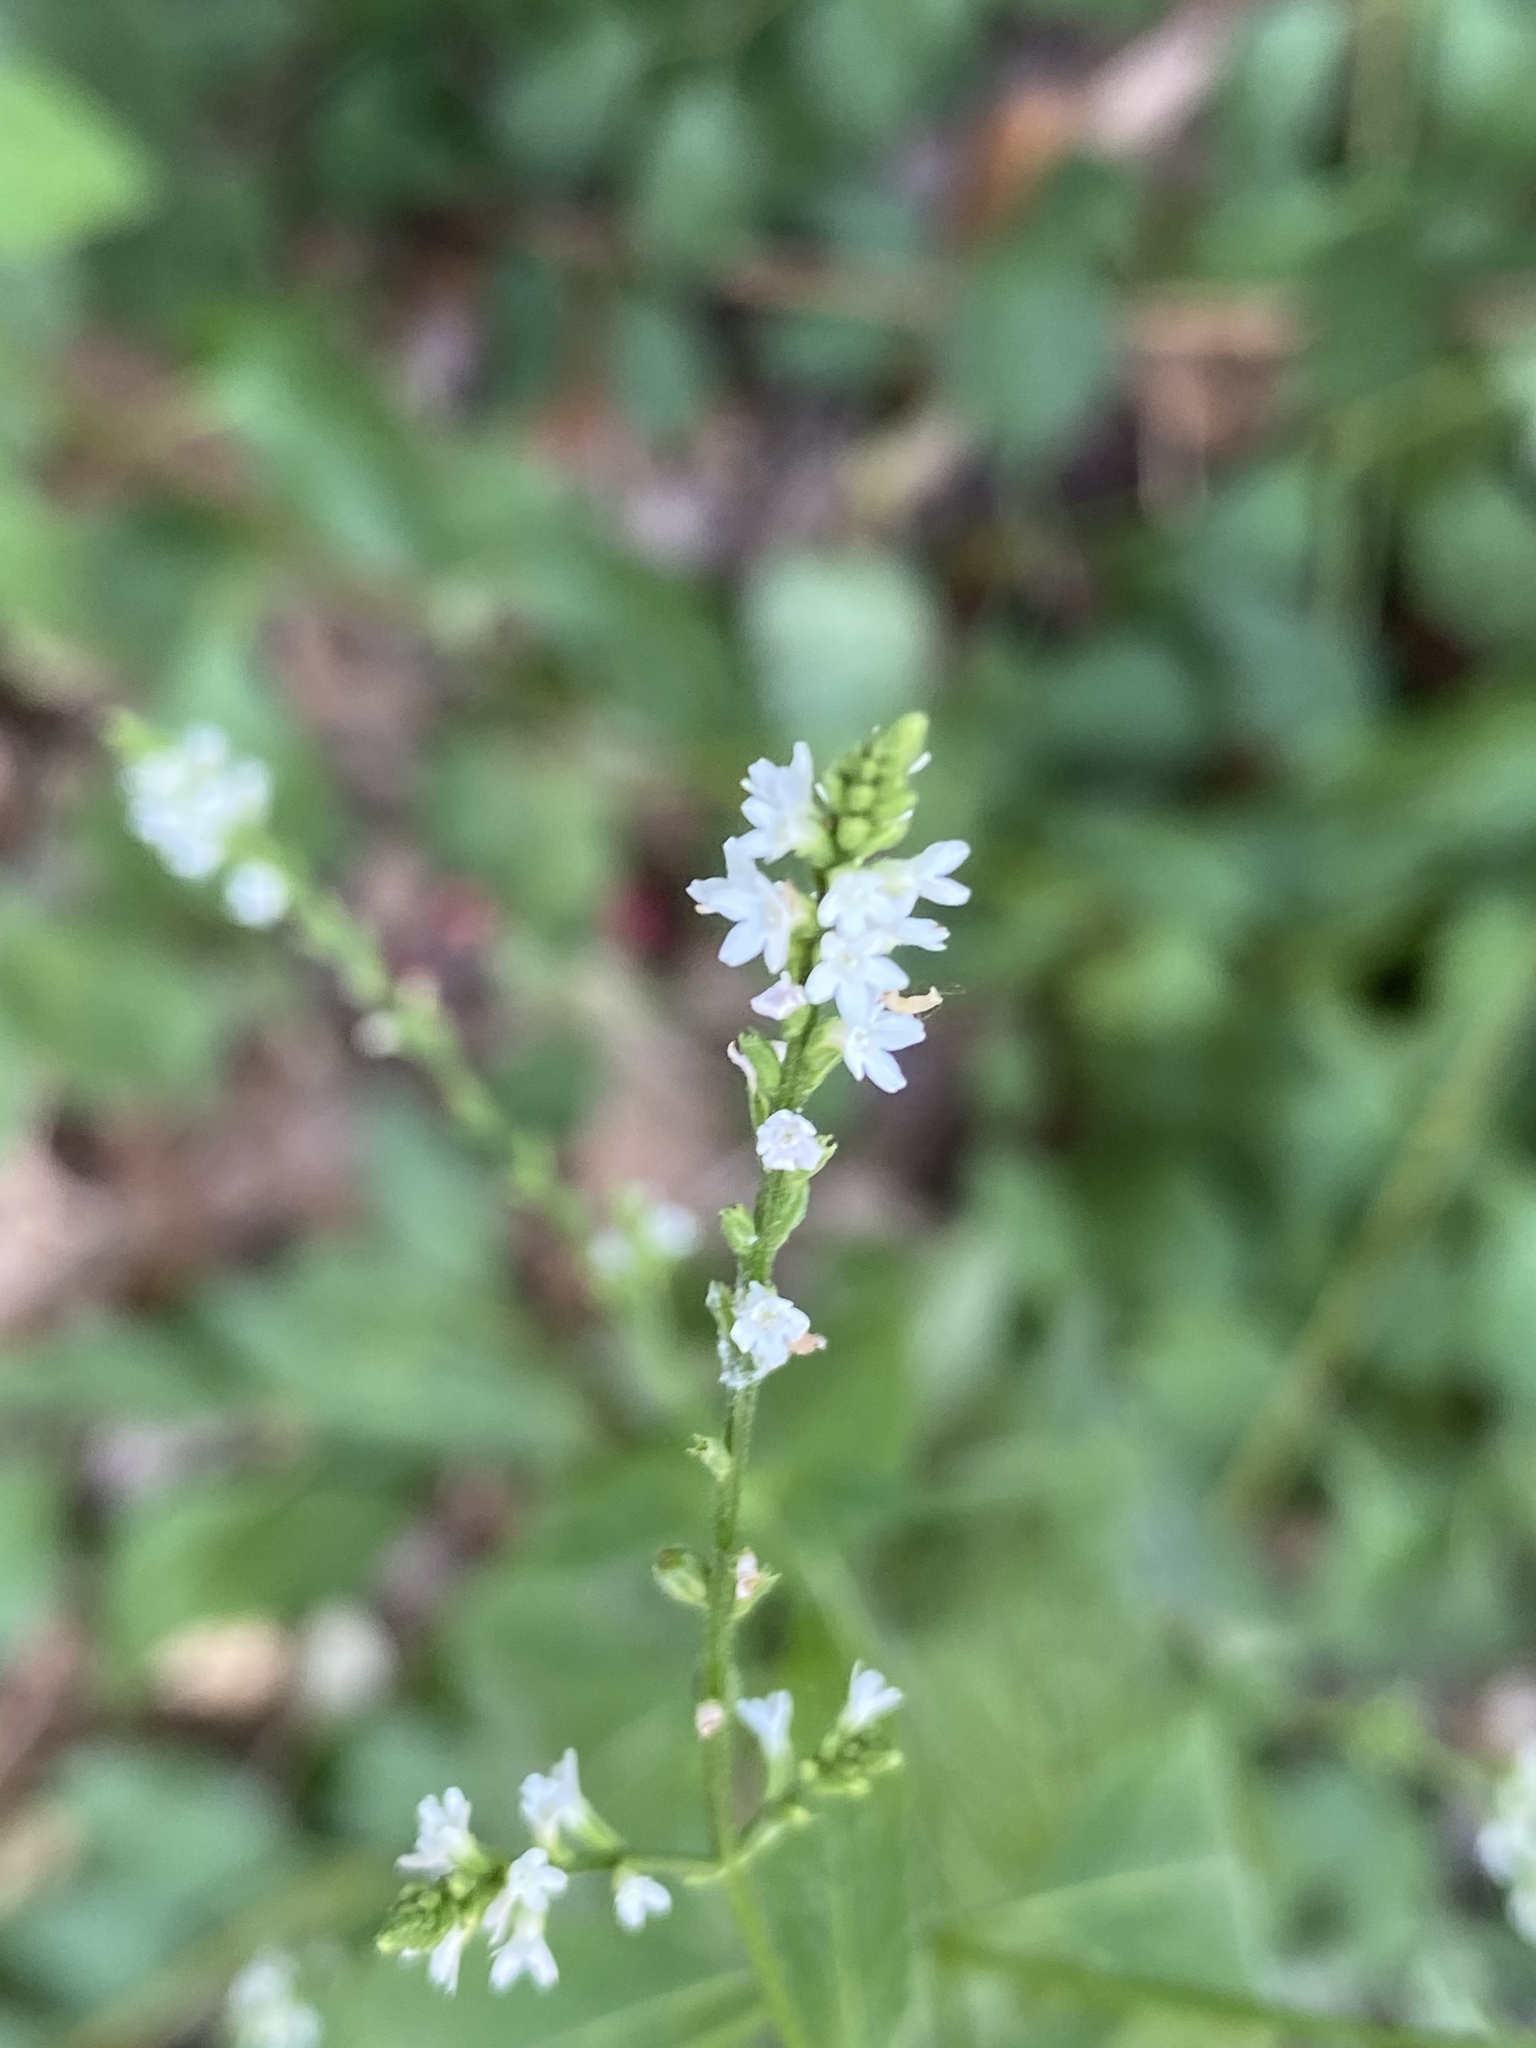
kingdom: Plantae
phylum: Tracheophyta
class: Magnoliopsida
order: Lamiales
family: Verbenaceae
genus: Verbena
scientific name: Verbena urticifolia
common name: Nettle-leaved vervain
